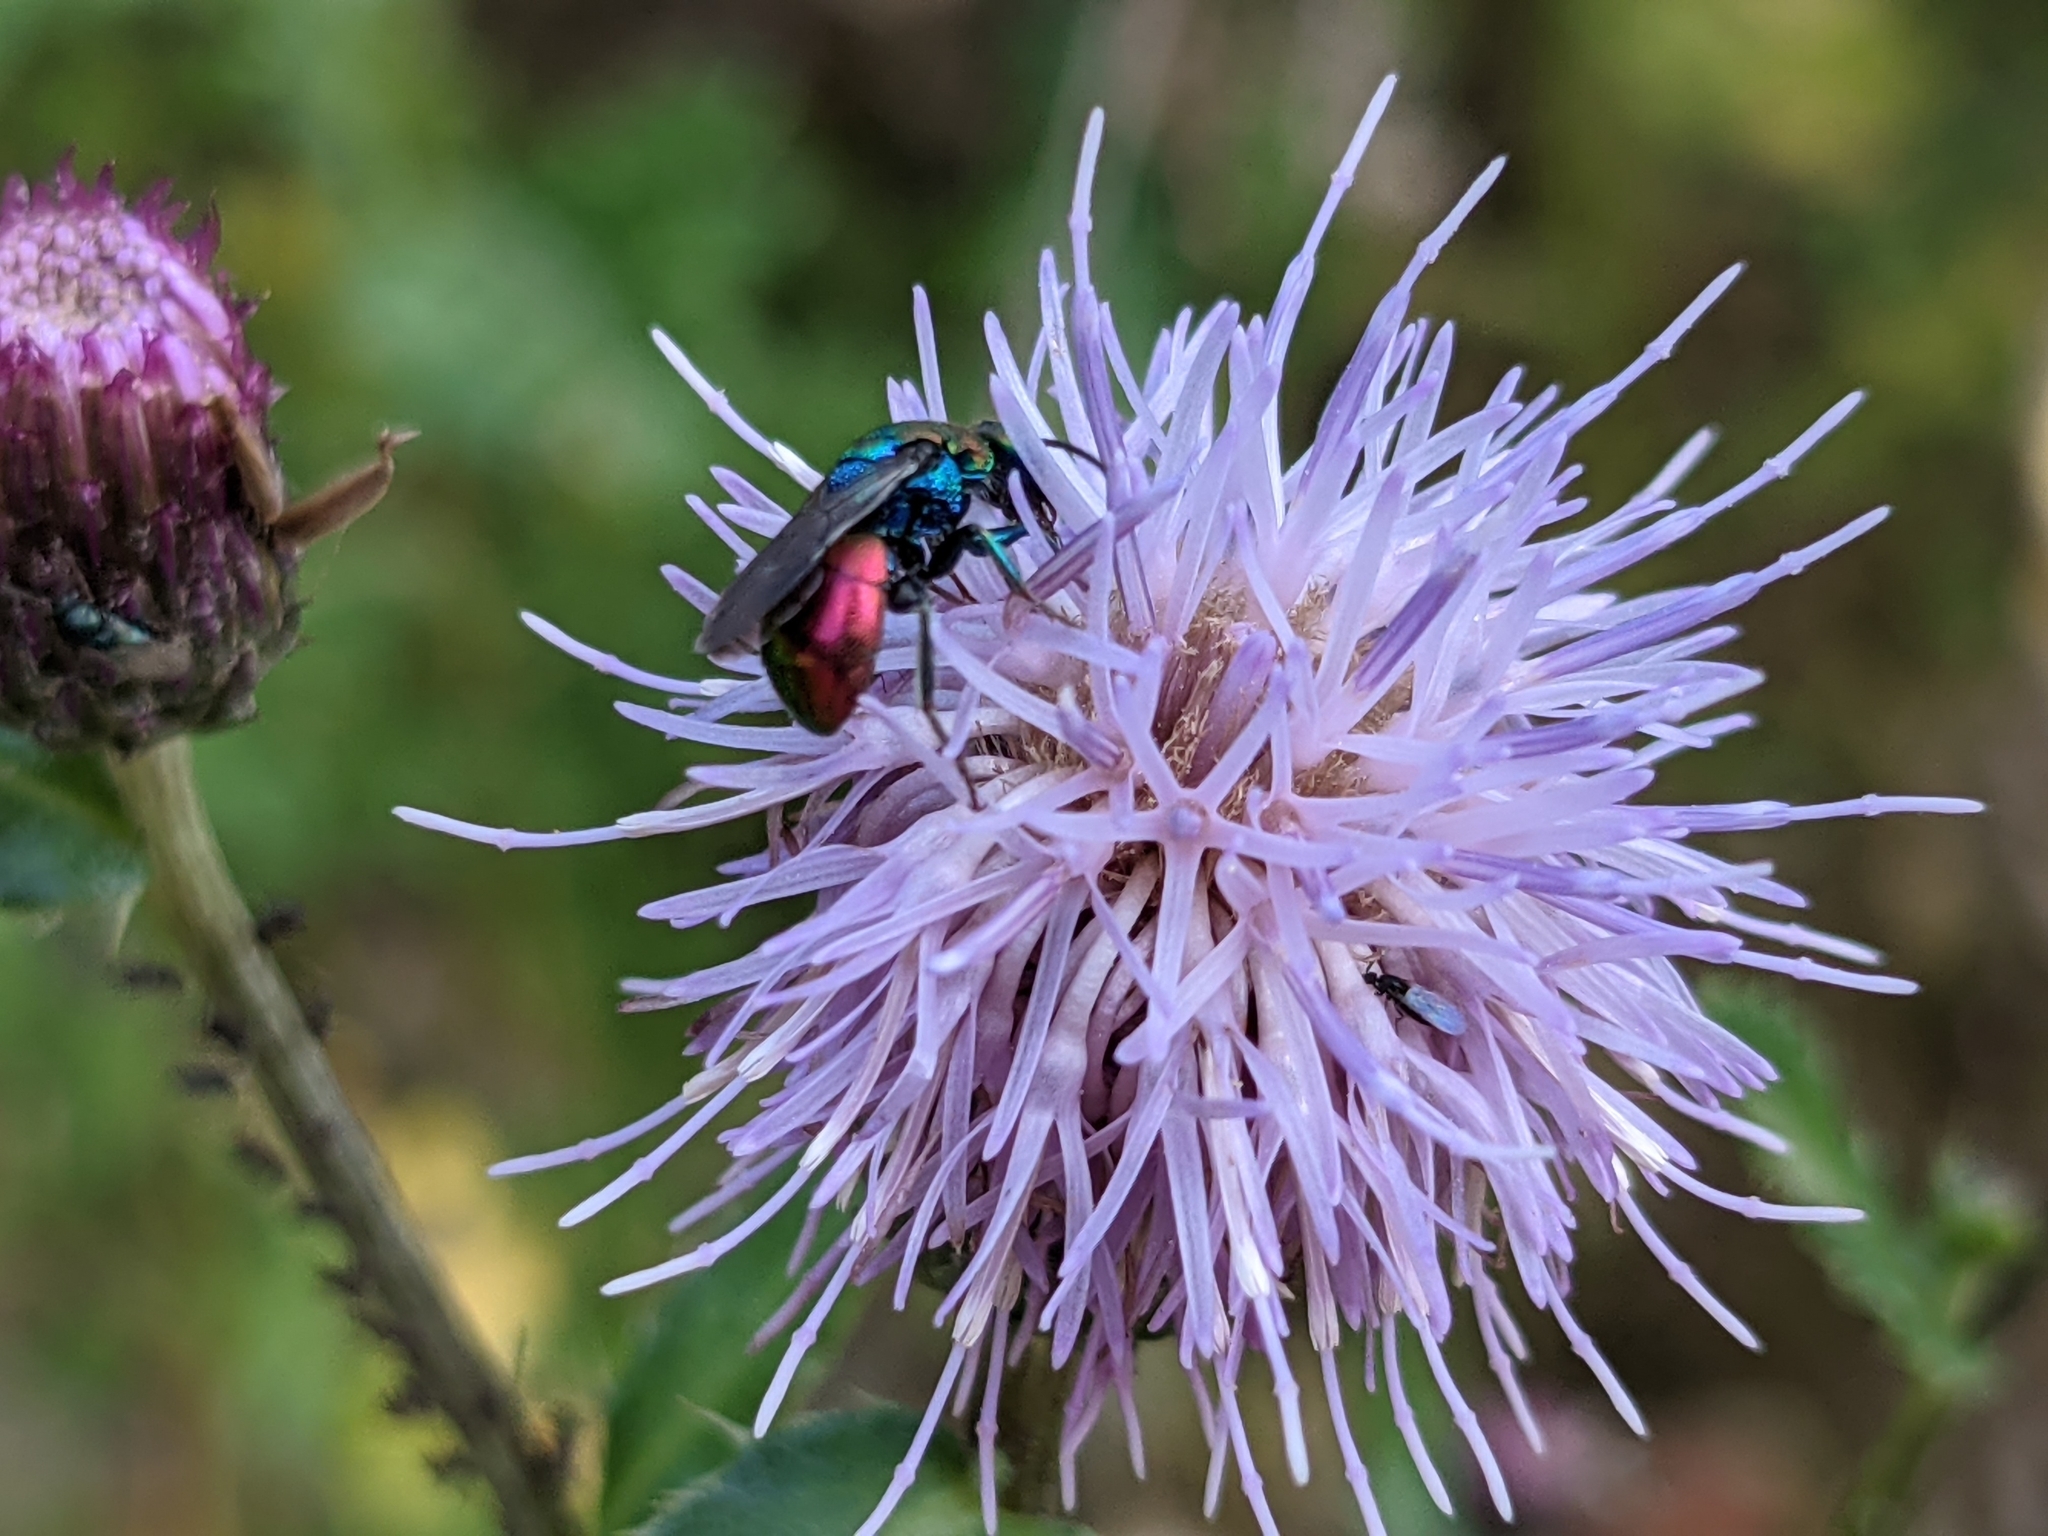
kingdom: Animalia
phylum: Arthropoda
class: Insecta
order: Hymenoptera
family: Chrysididae
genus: Hedychrum
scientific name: Hedychrum rutilans
